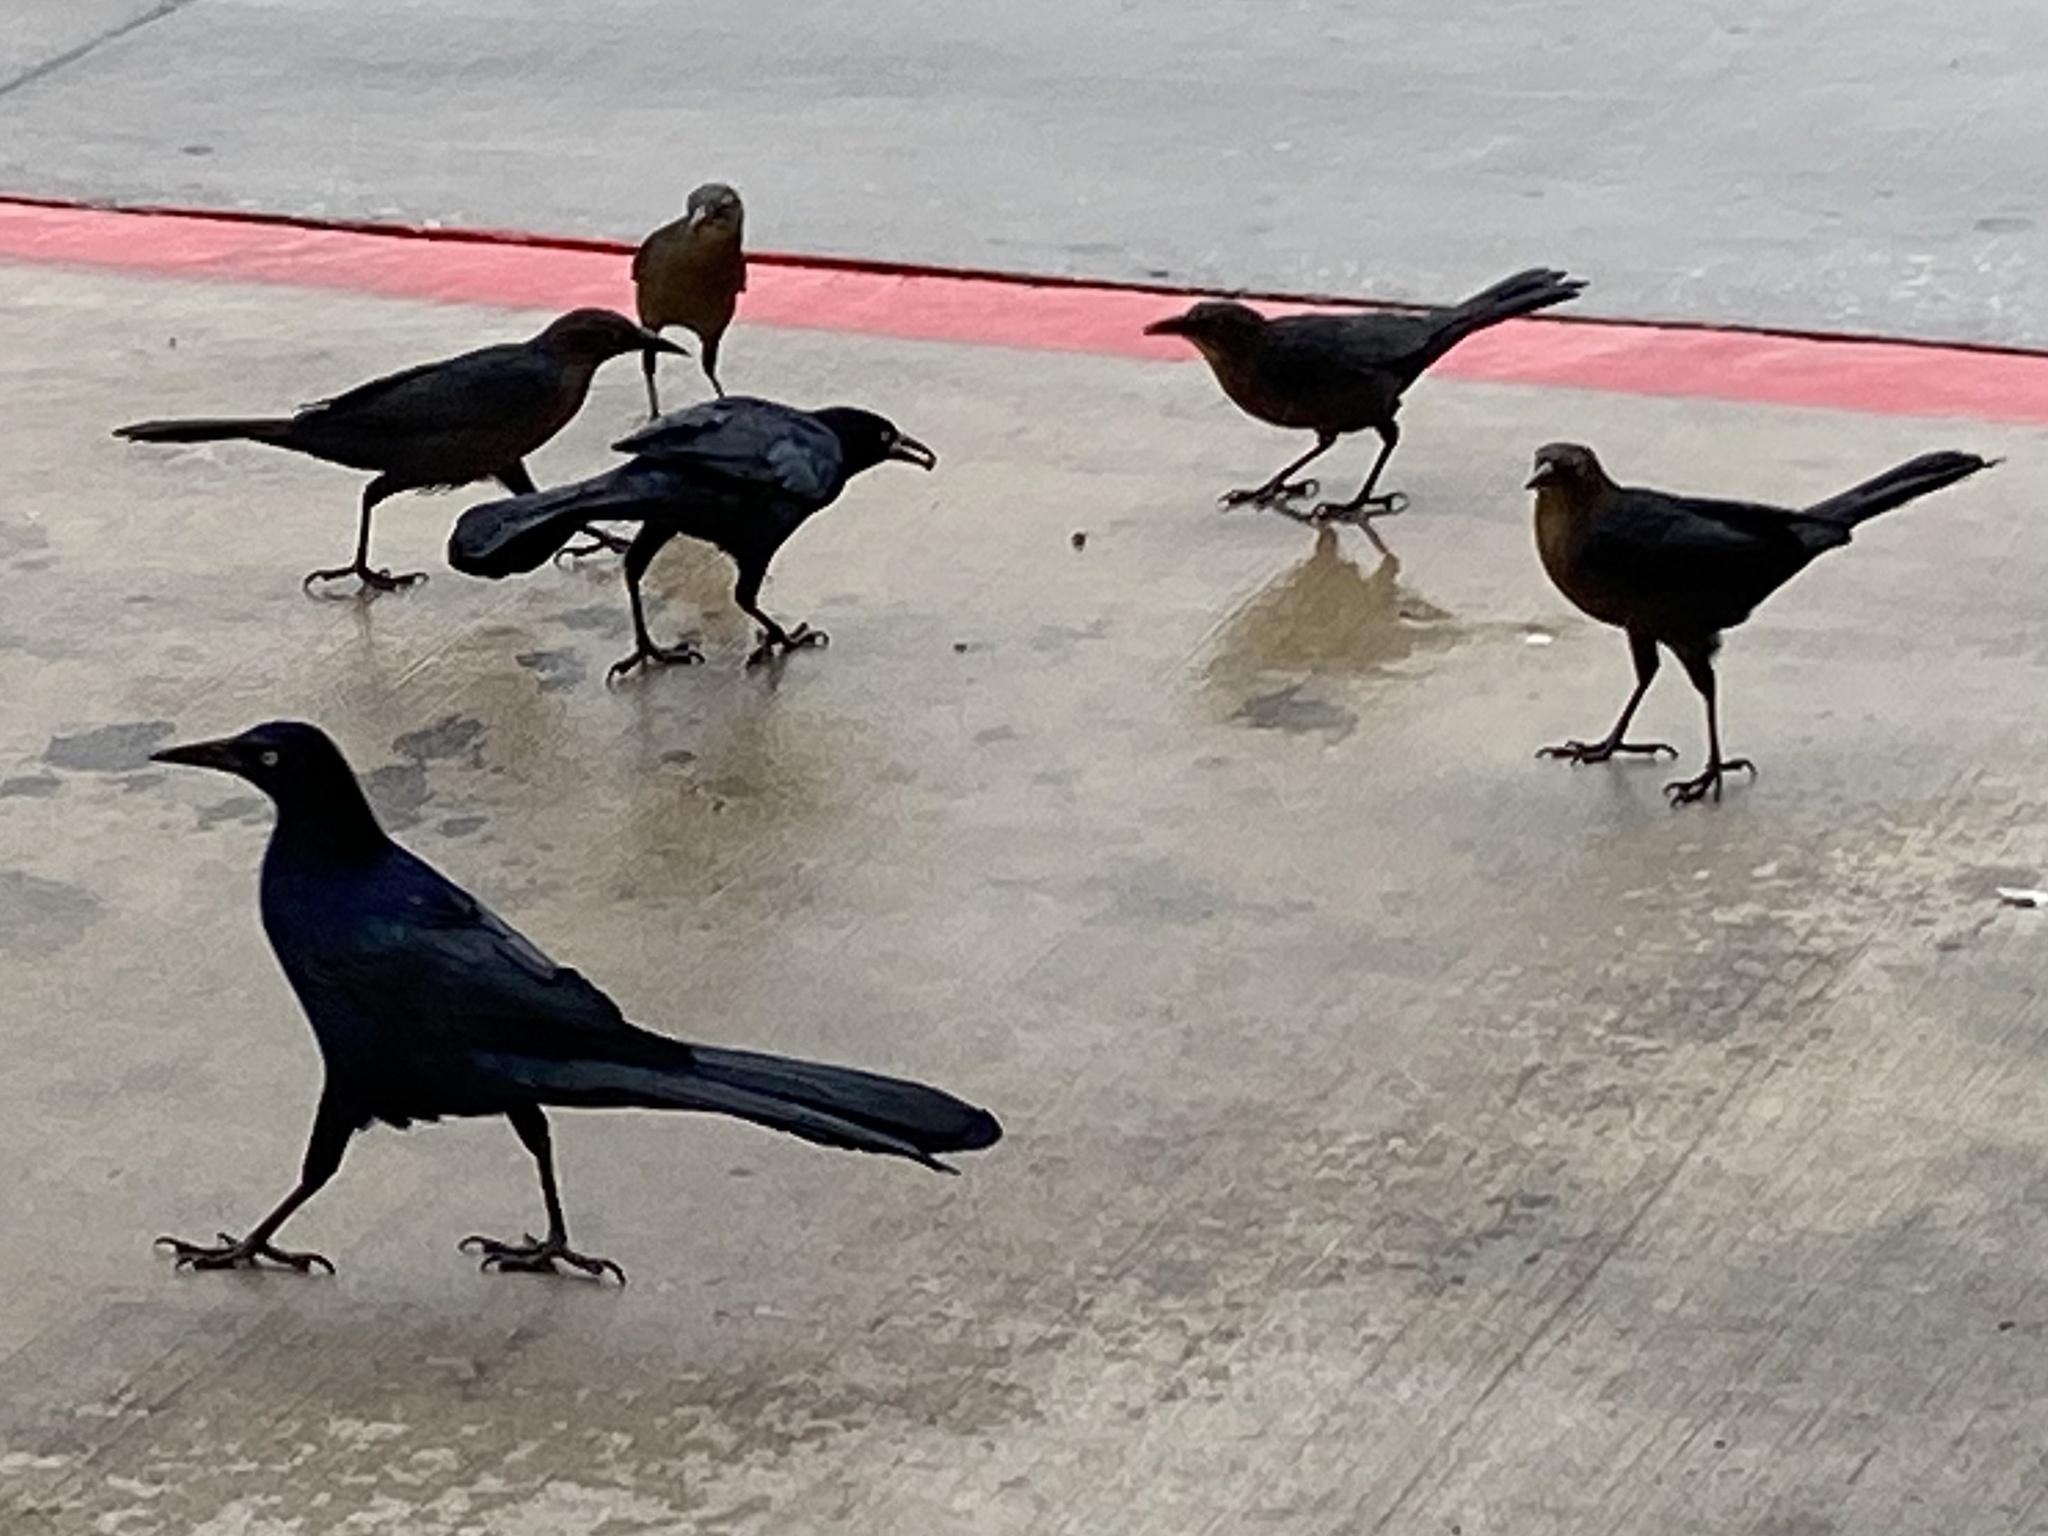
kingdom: Animalia
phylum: Chordata
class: Aves
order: Passeriformes
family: Icteridae
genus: Quiscalus
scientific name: Quiscalus mexicanus
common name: Great-tailed grackle
